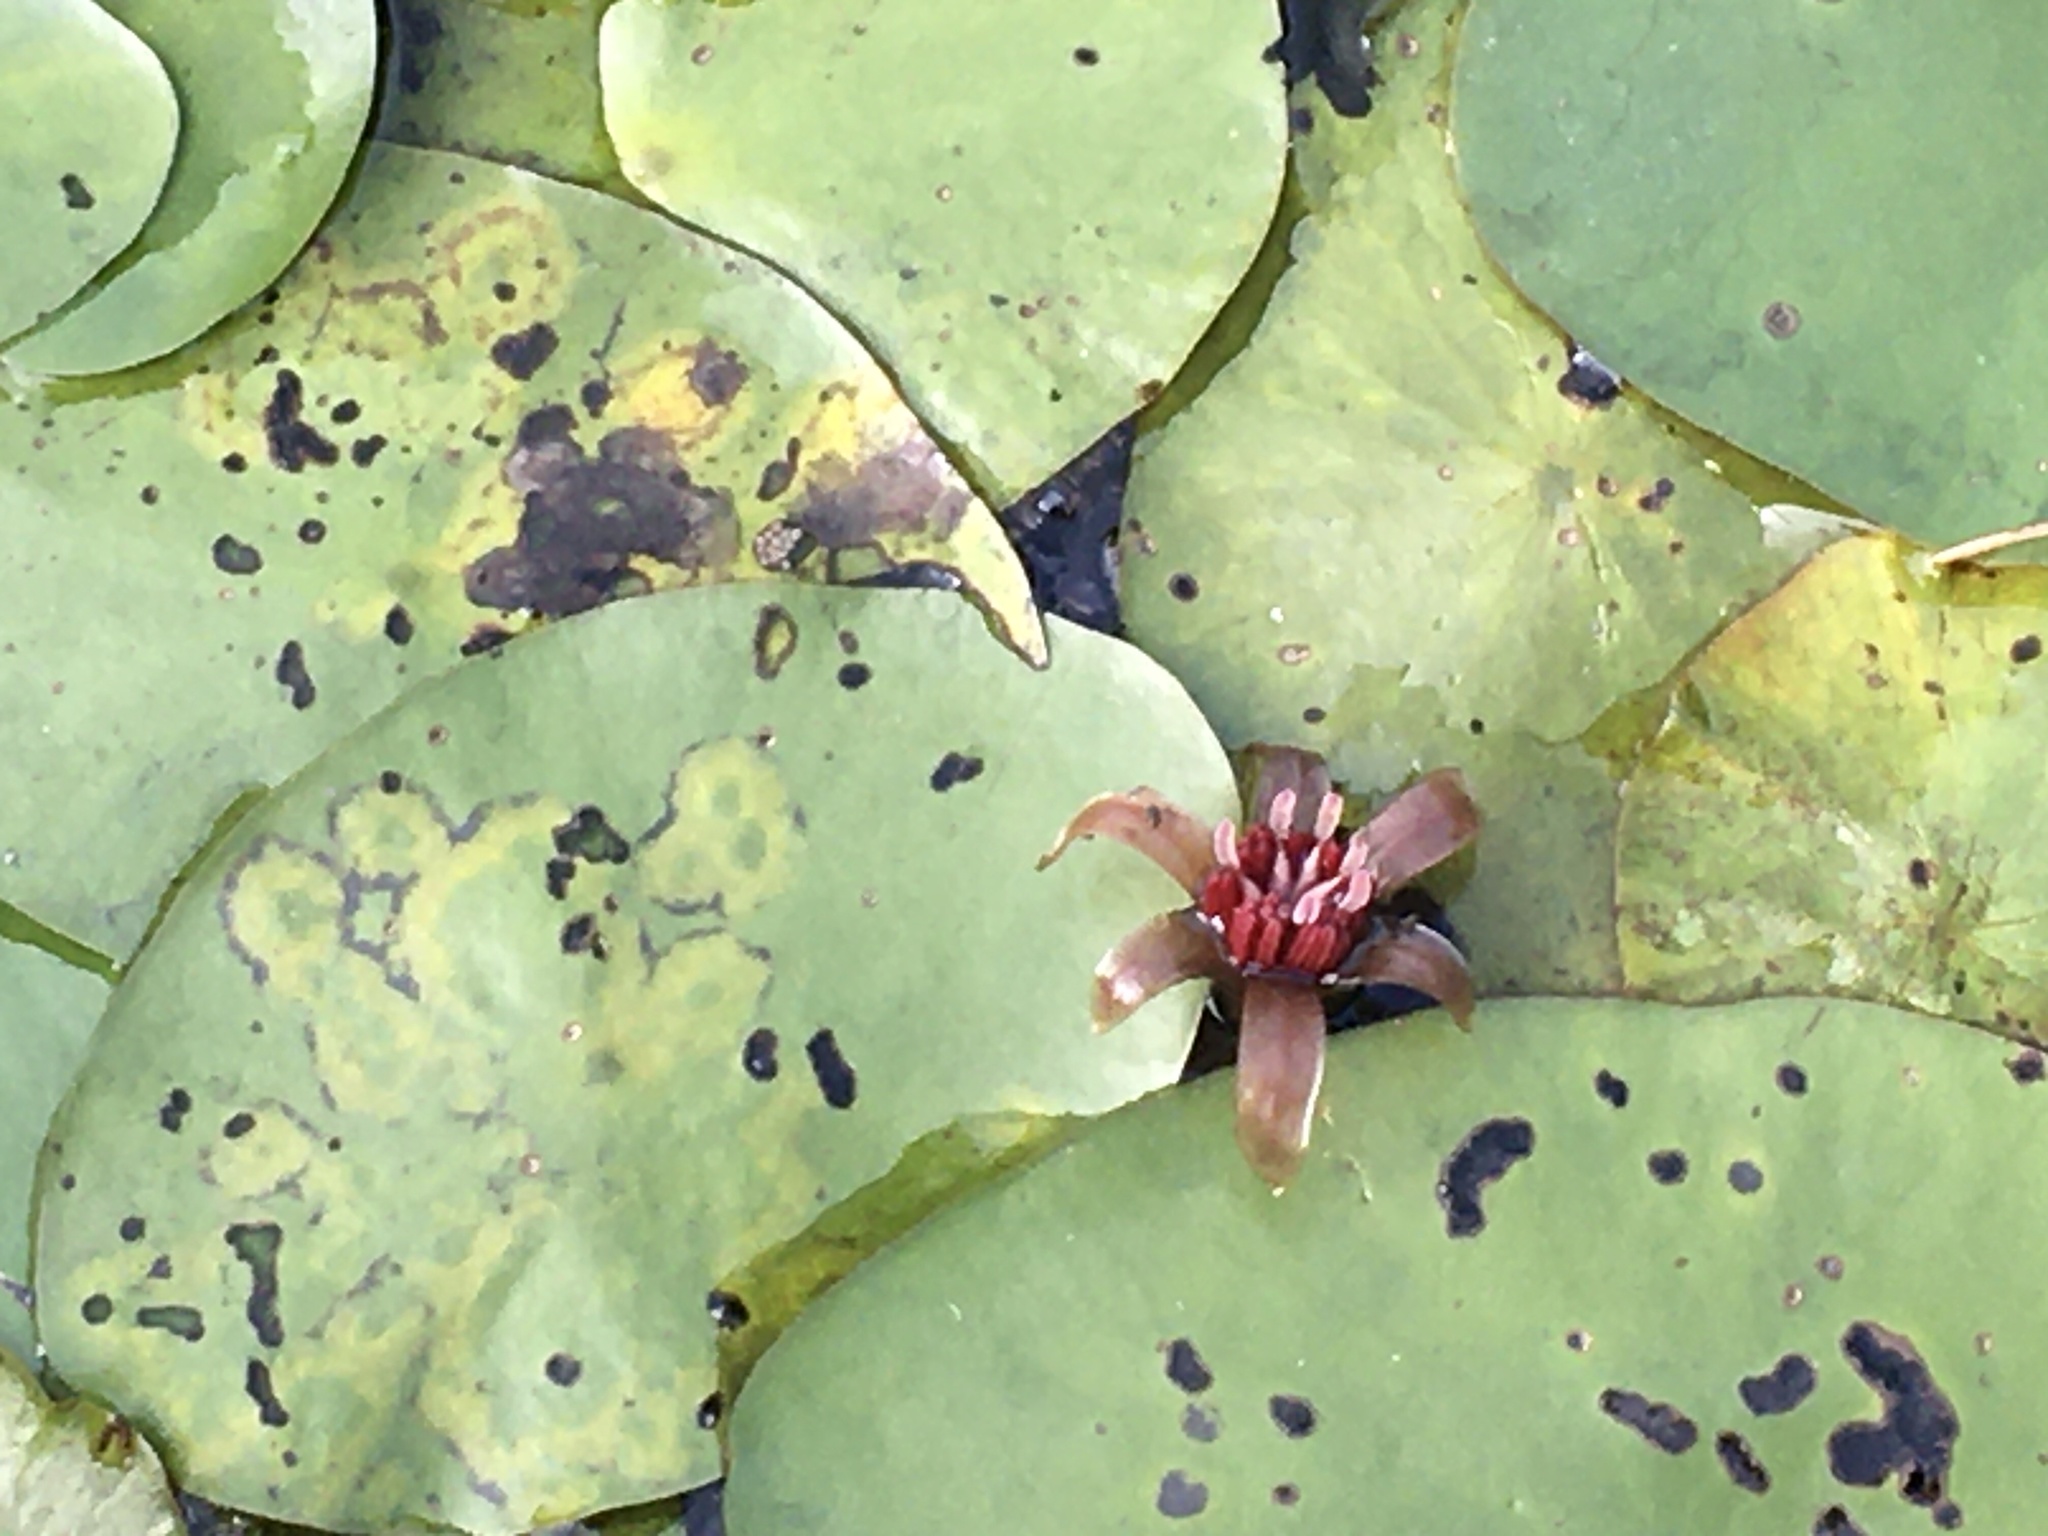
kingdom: Plantae
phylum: Tracheophyta
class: Magnoliopsida
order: Nymphaeales
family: Cabombaceae
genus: Brasenia
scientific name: Brasenia schreberi
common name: Water-shield
